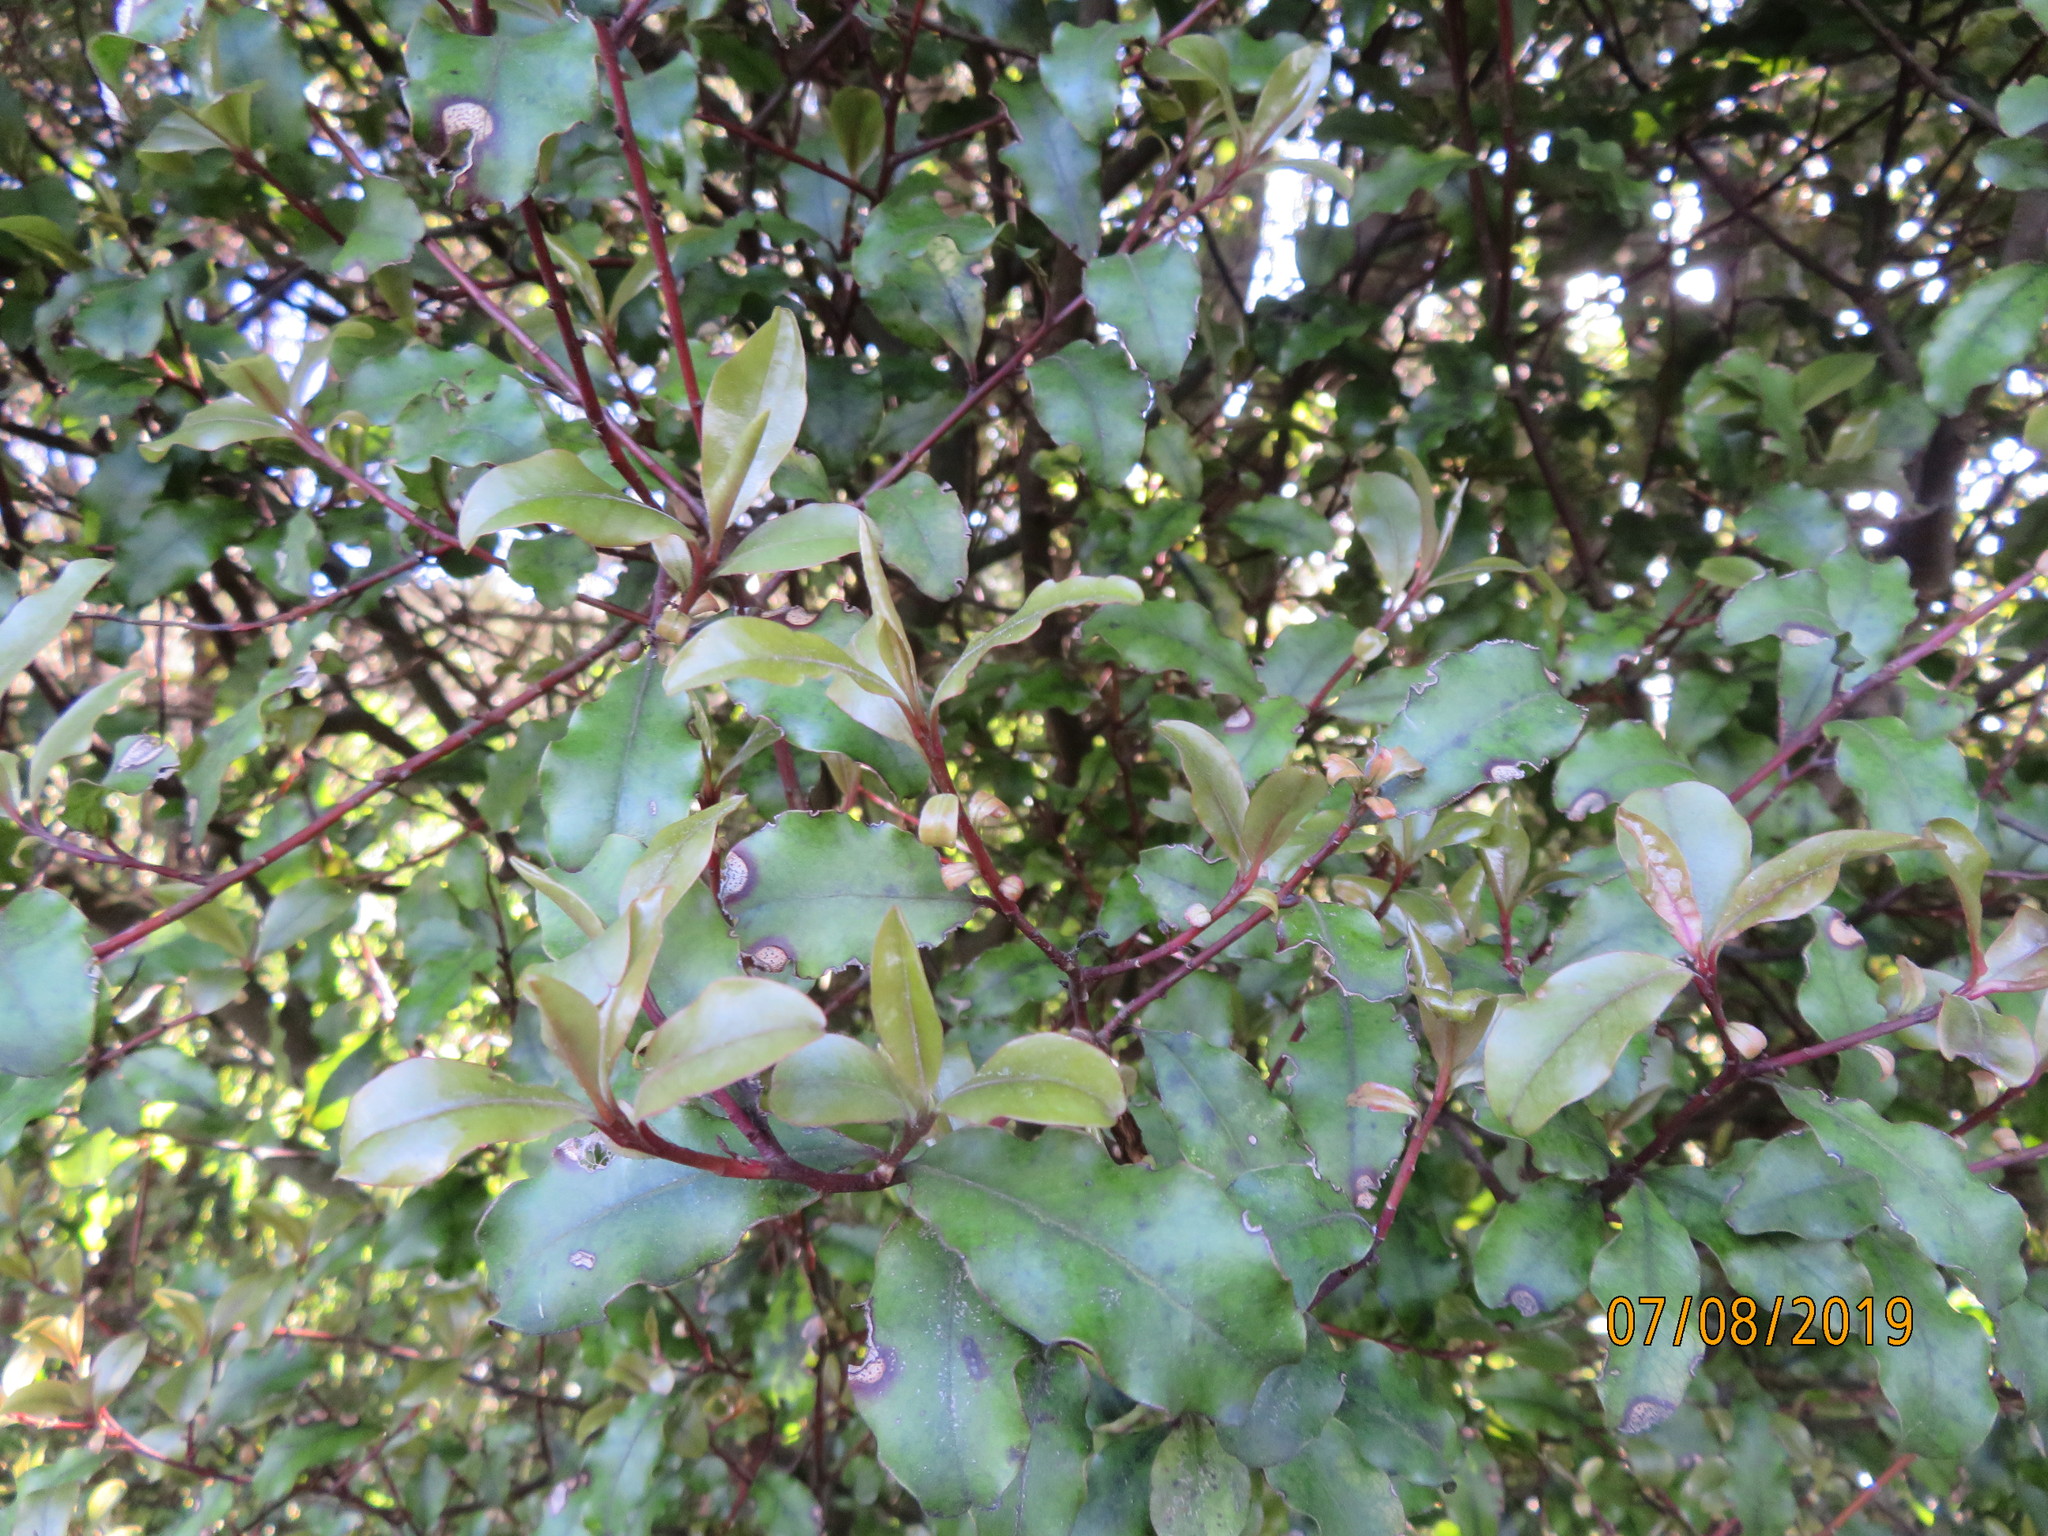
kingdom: Plantae
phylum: Tracheophyta
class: Magnoliopsida
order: Ericales
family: Primulaceae
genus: Myrsine
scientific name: Myrsine australis
